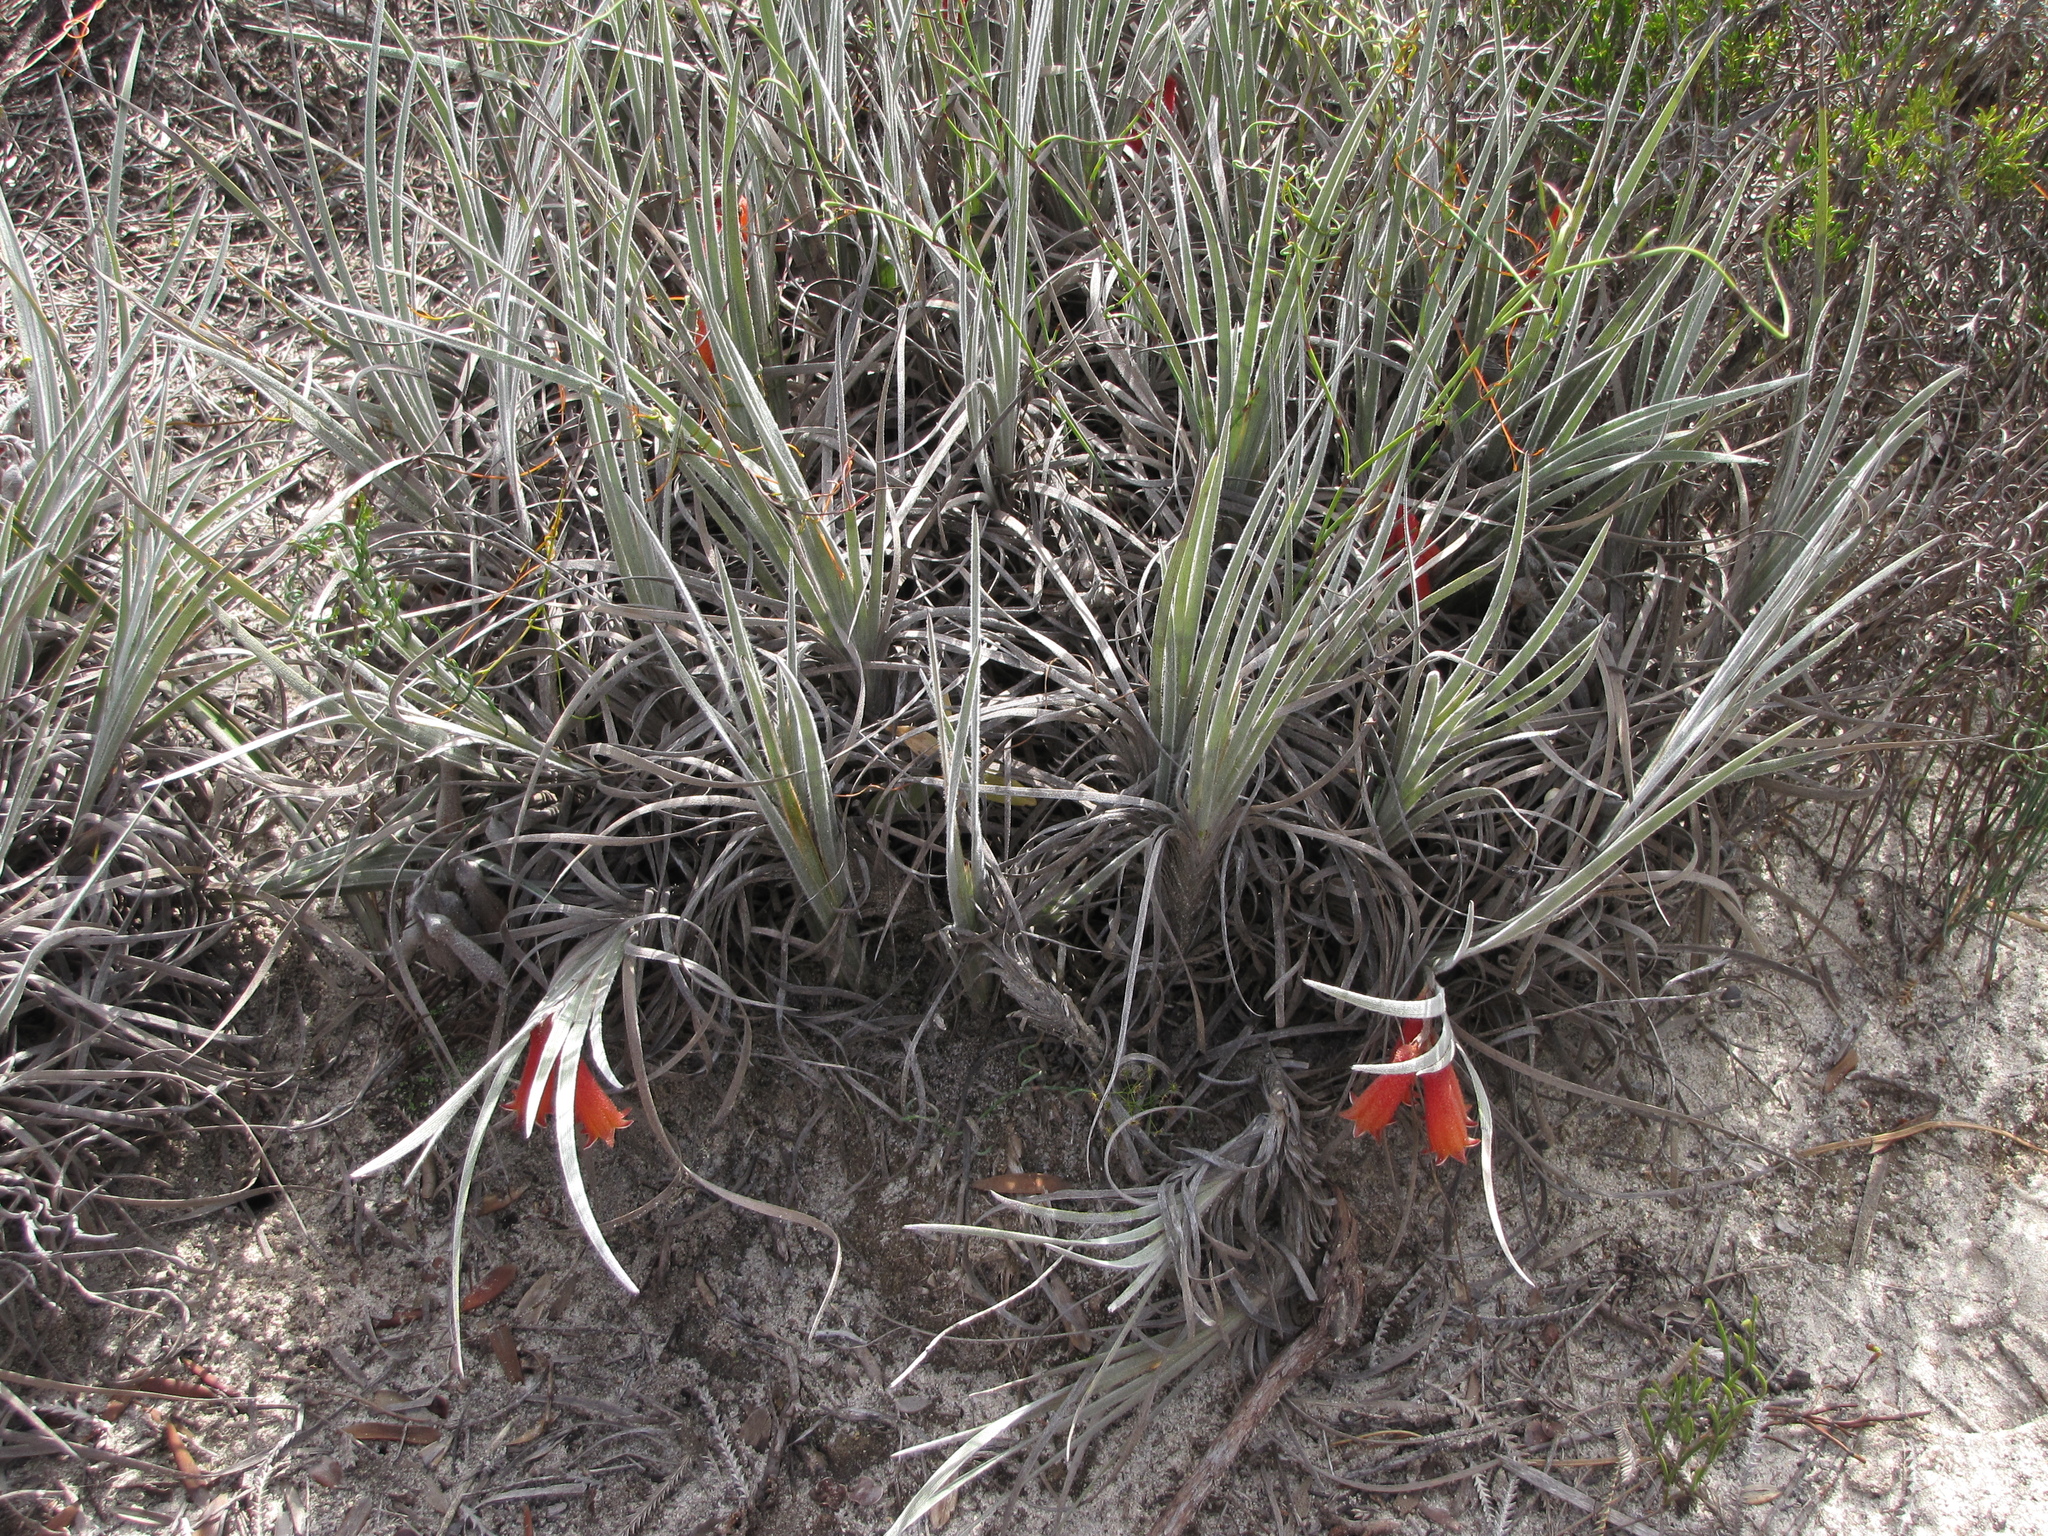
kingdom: Plantae
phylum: Tracheophyta
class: Liliopsida
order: Commelinales
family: Haemodoraceae
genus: Blancoa
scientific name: Blancoa canescens
